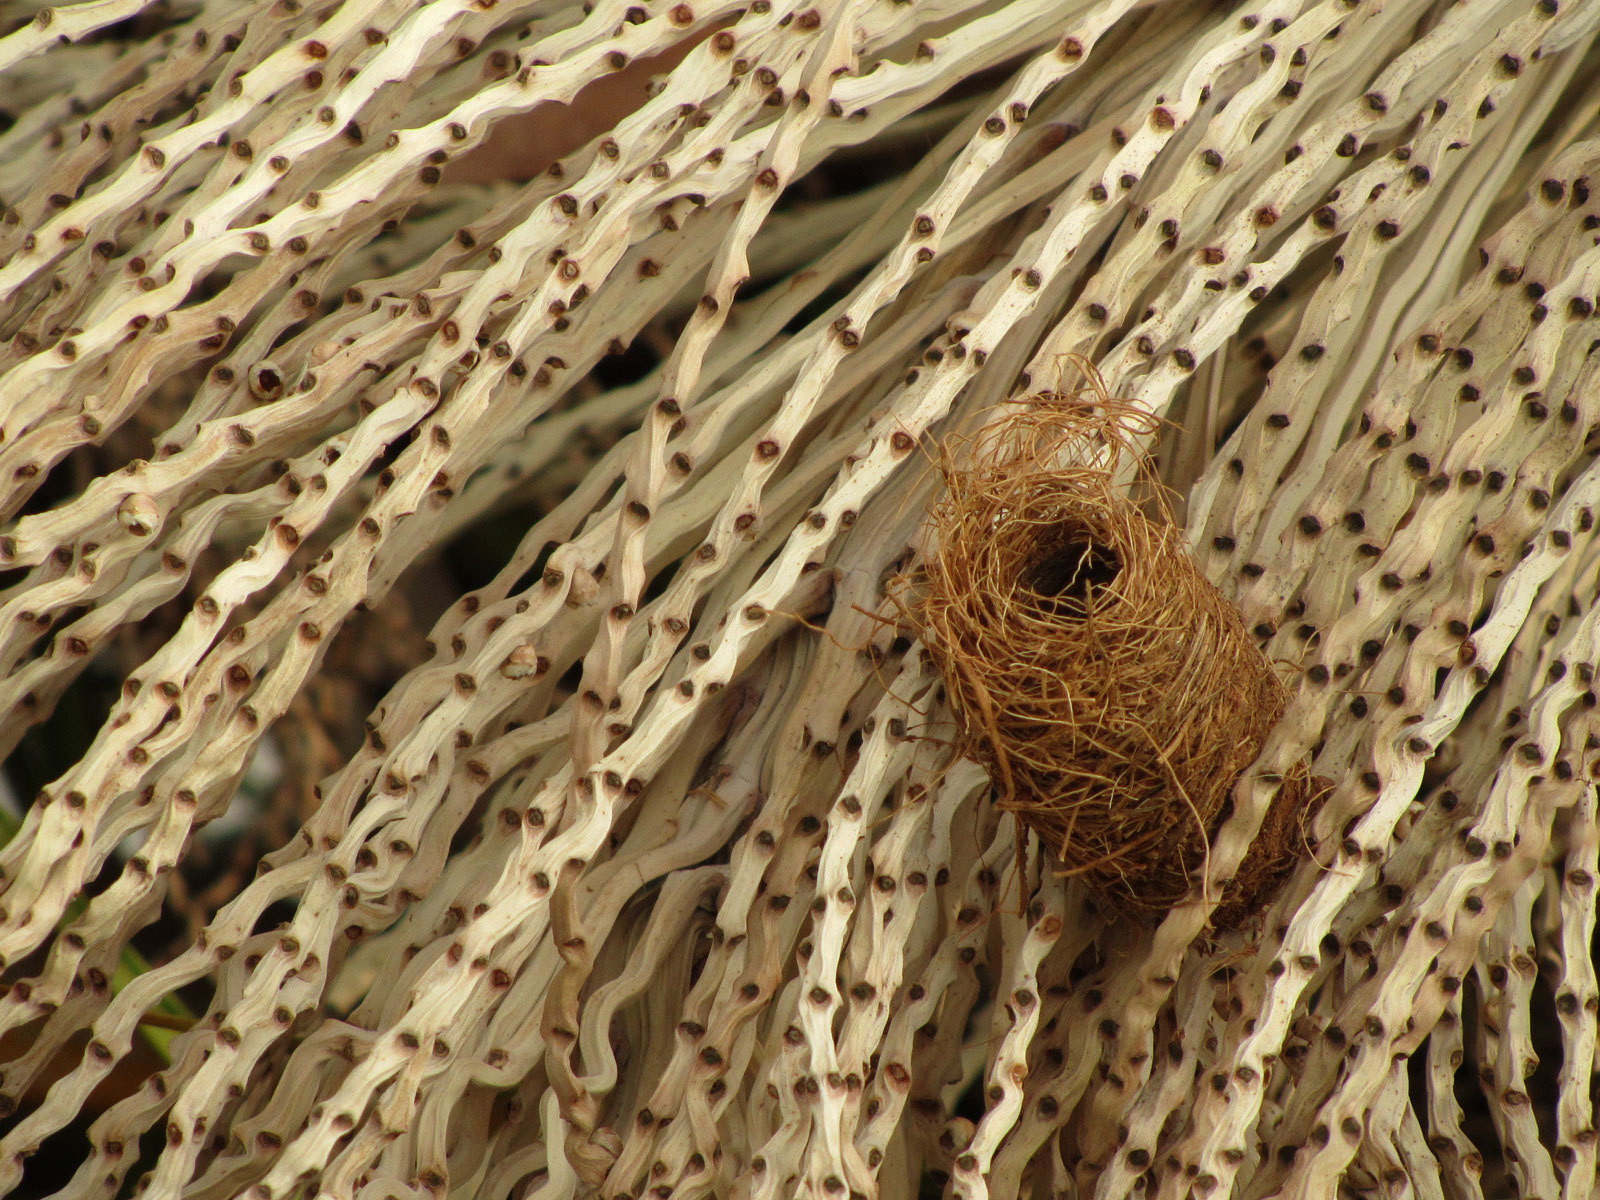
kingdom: Animalia
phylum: Arthropoda
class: Insecta
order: Coleoptera
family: Dryophthoridae
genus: Rhynchophorus
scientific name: Rhynchophorus ferrugineus
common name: Red palm weevil
